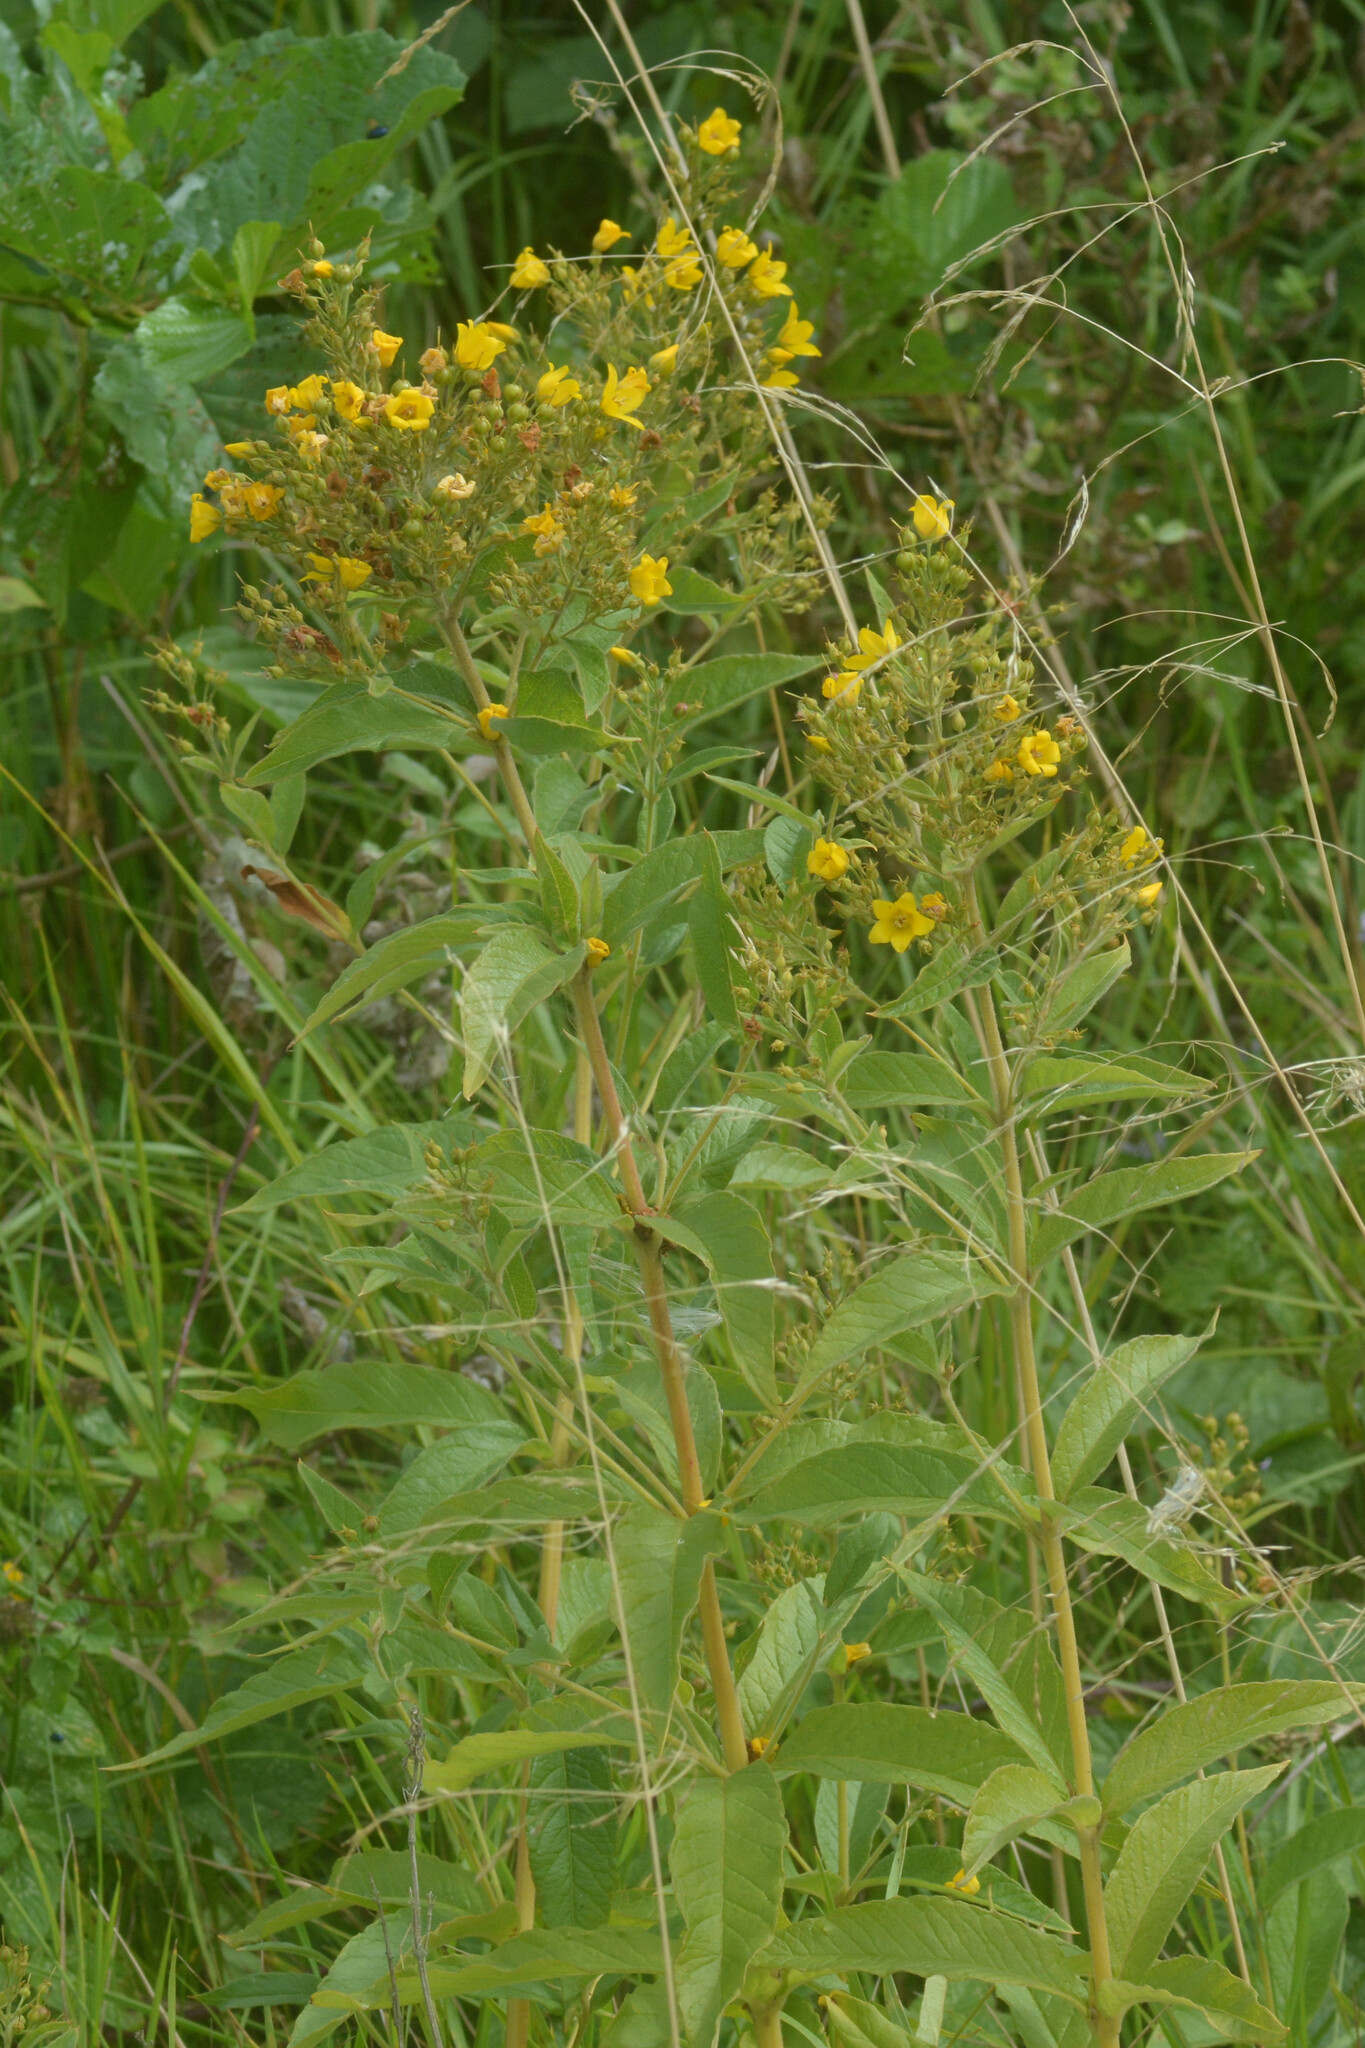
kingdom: Plantae
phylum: Tracheophyta
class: Magnoliopsida
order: Ericales
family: Primulaceae
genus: Lysimachia
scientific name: Lysimachia vulgaris
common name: Yellow loosestrife
